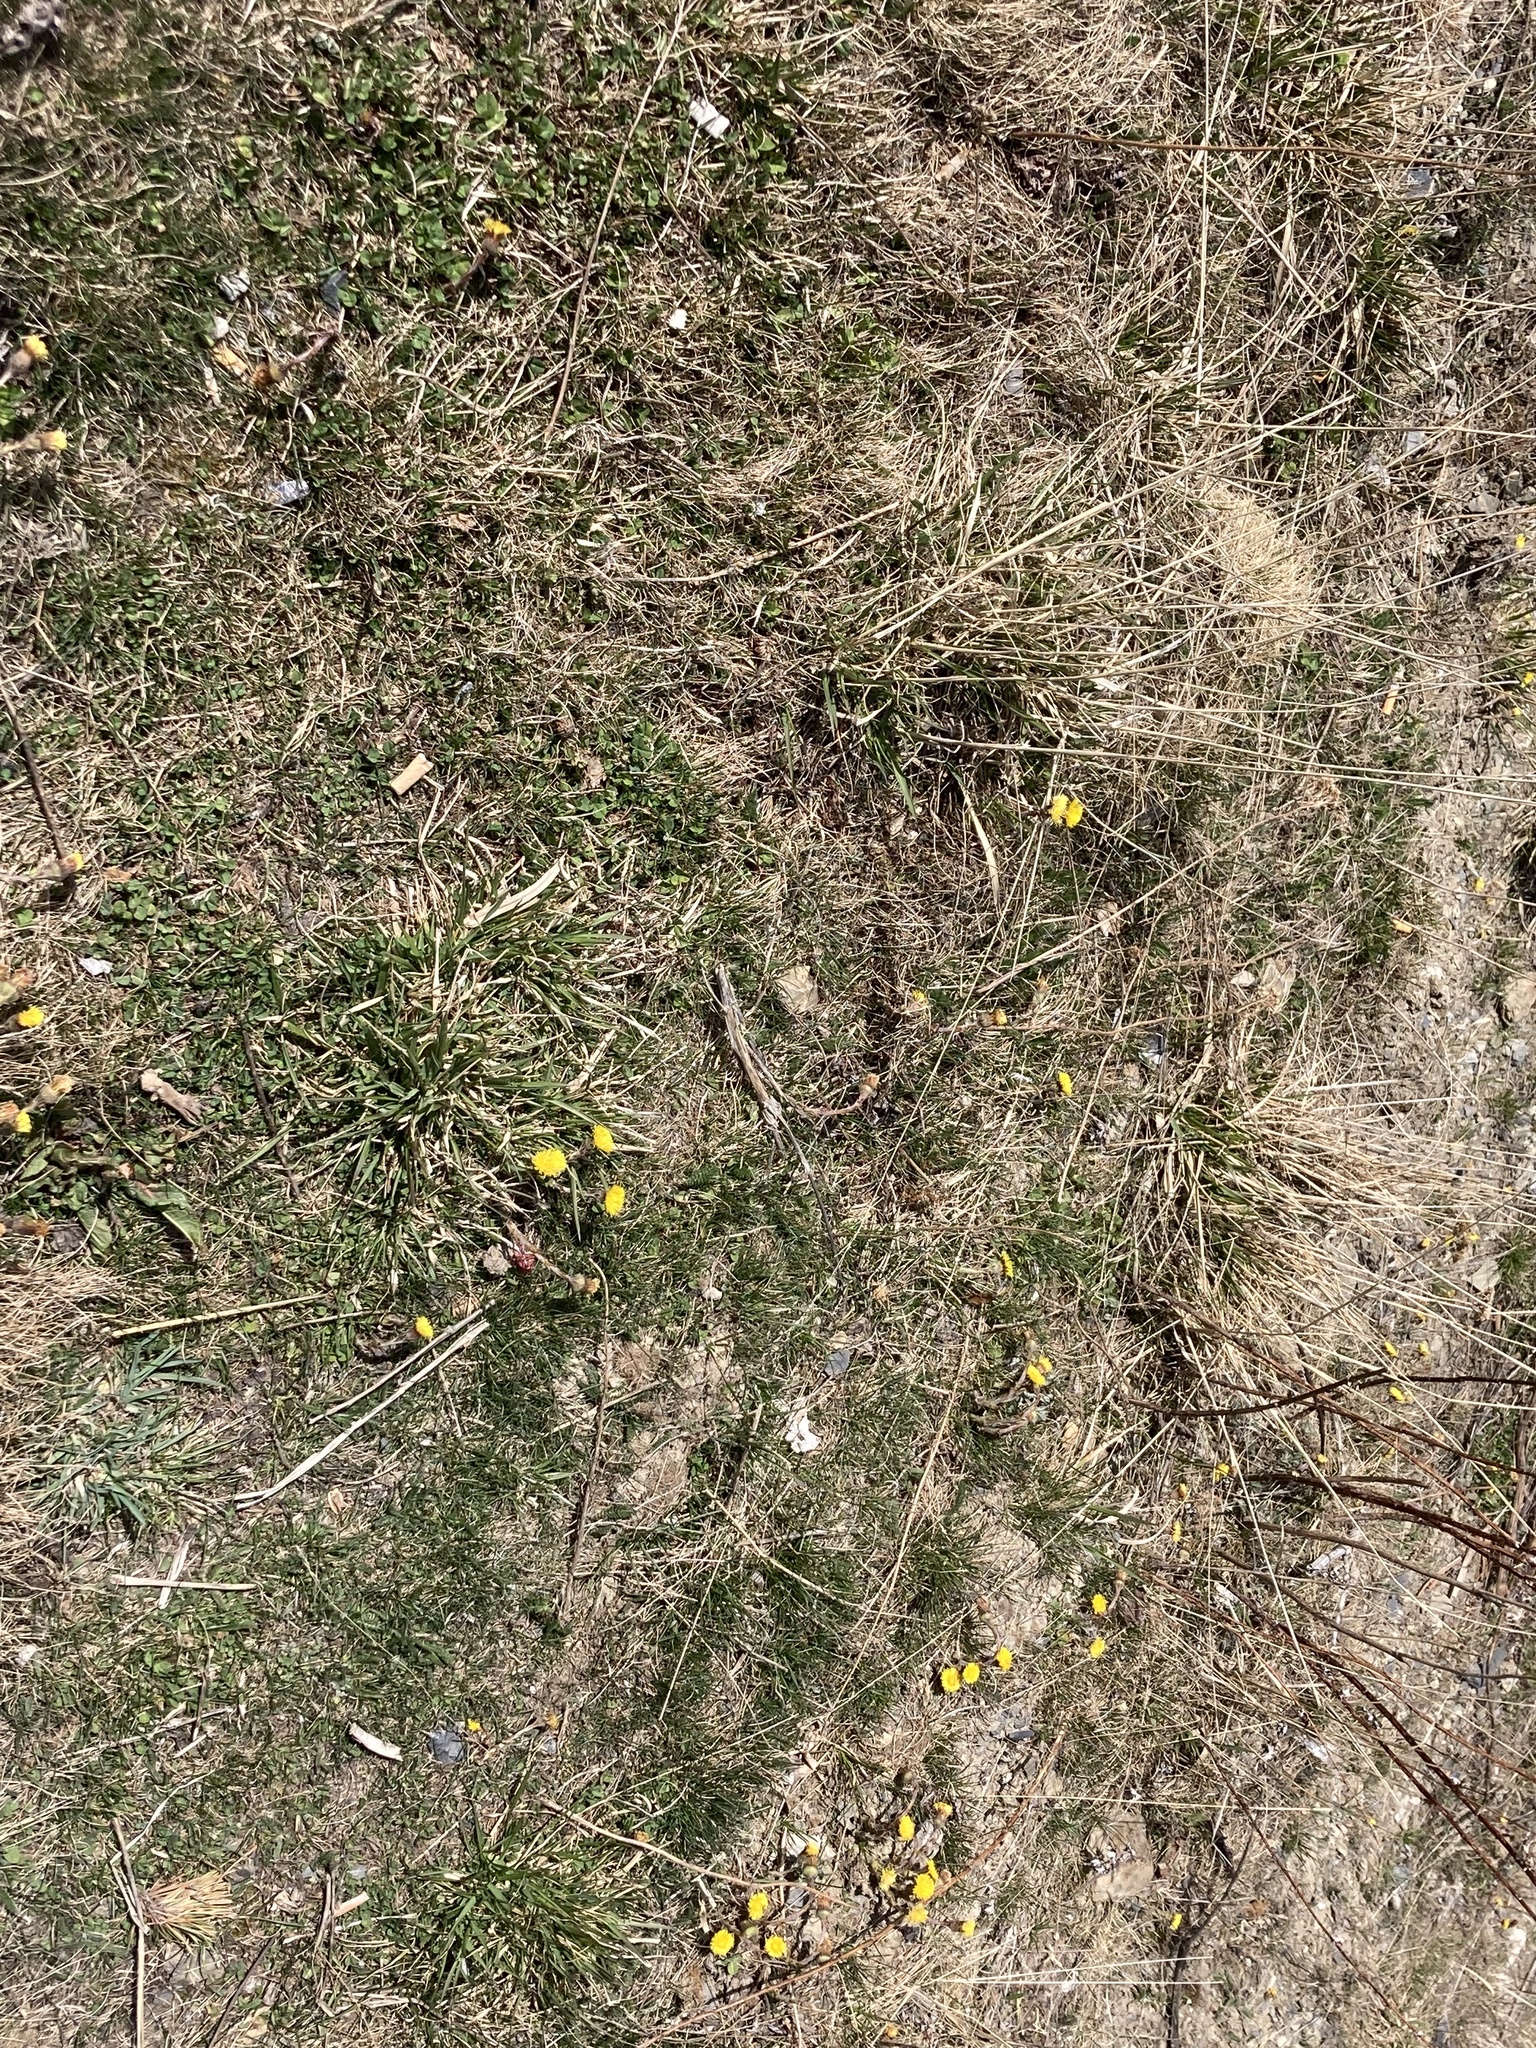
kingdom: Plantae
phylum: Tracheophyta
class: Magnoliopsida
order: Asterales
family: Asteraceae
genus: Tussilago
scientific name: Tussilago farfara
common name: Coltsfoot
